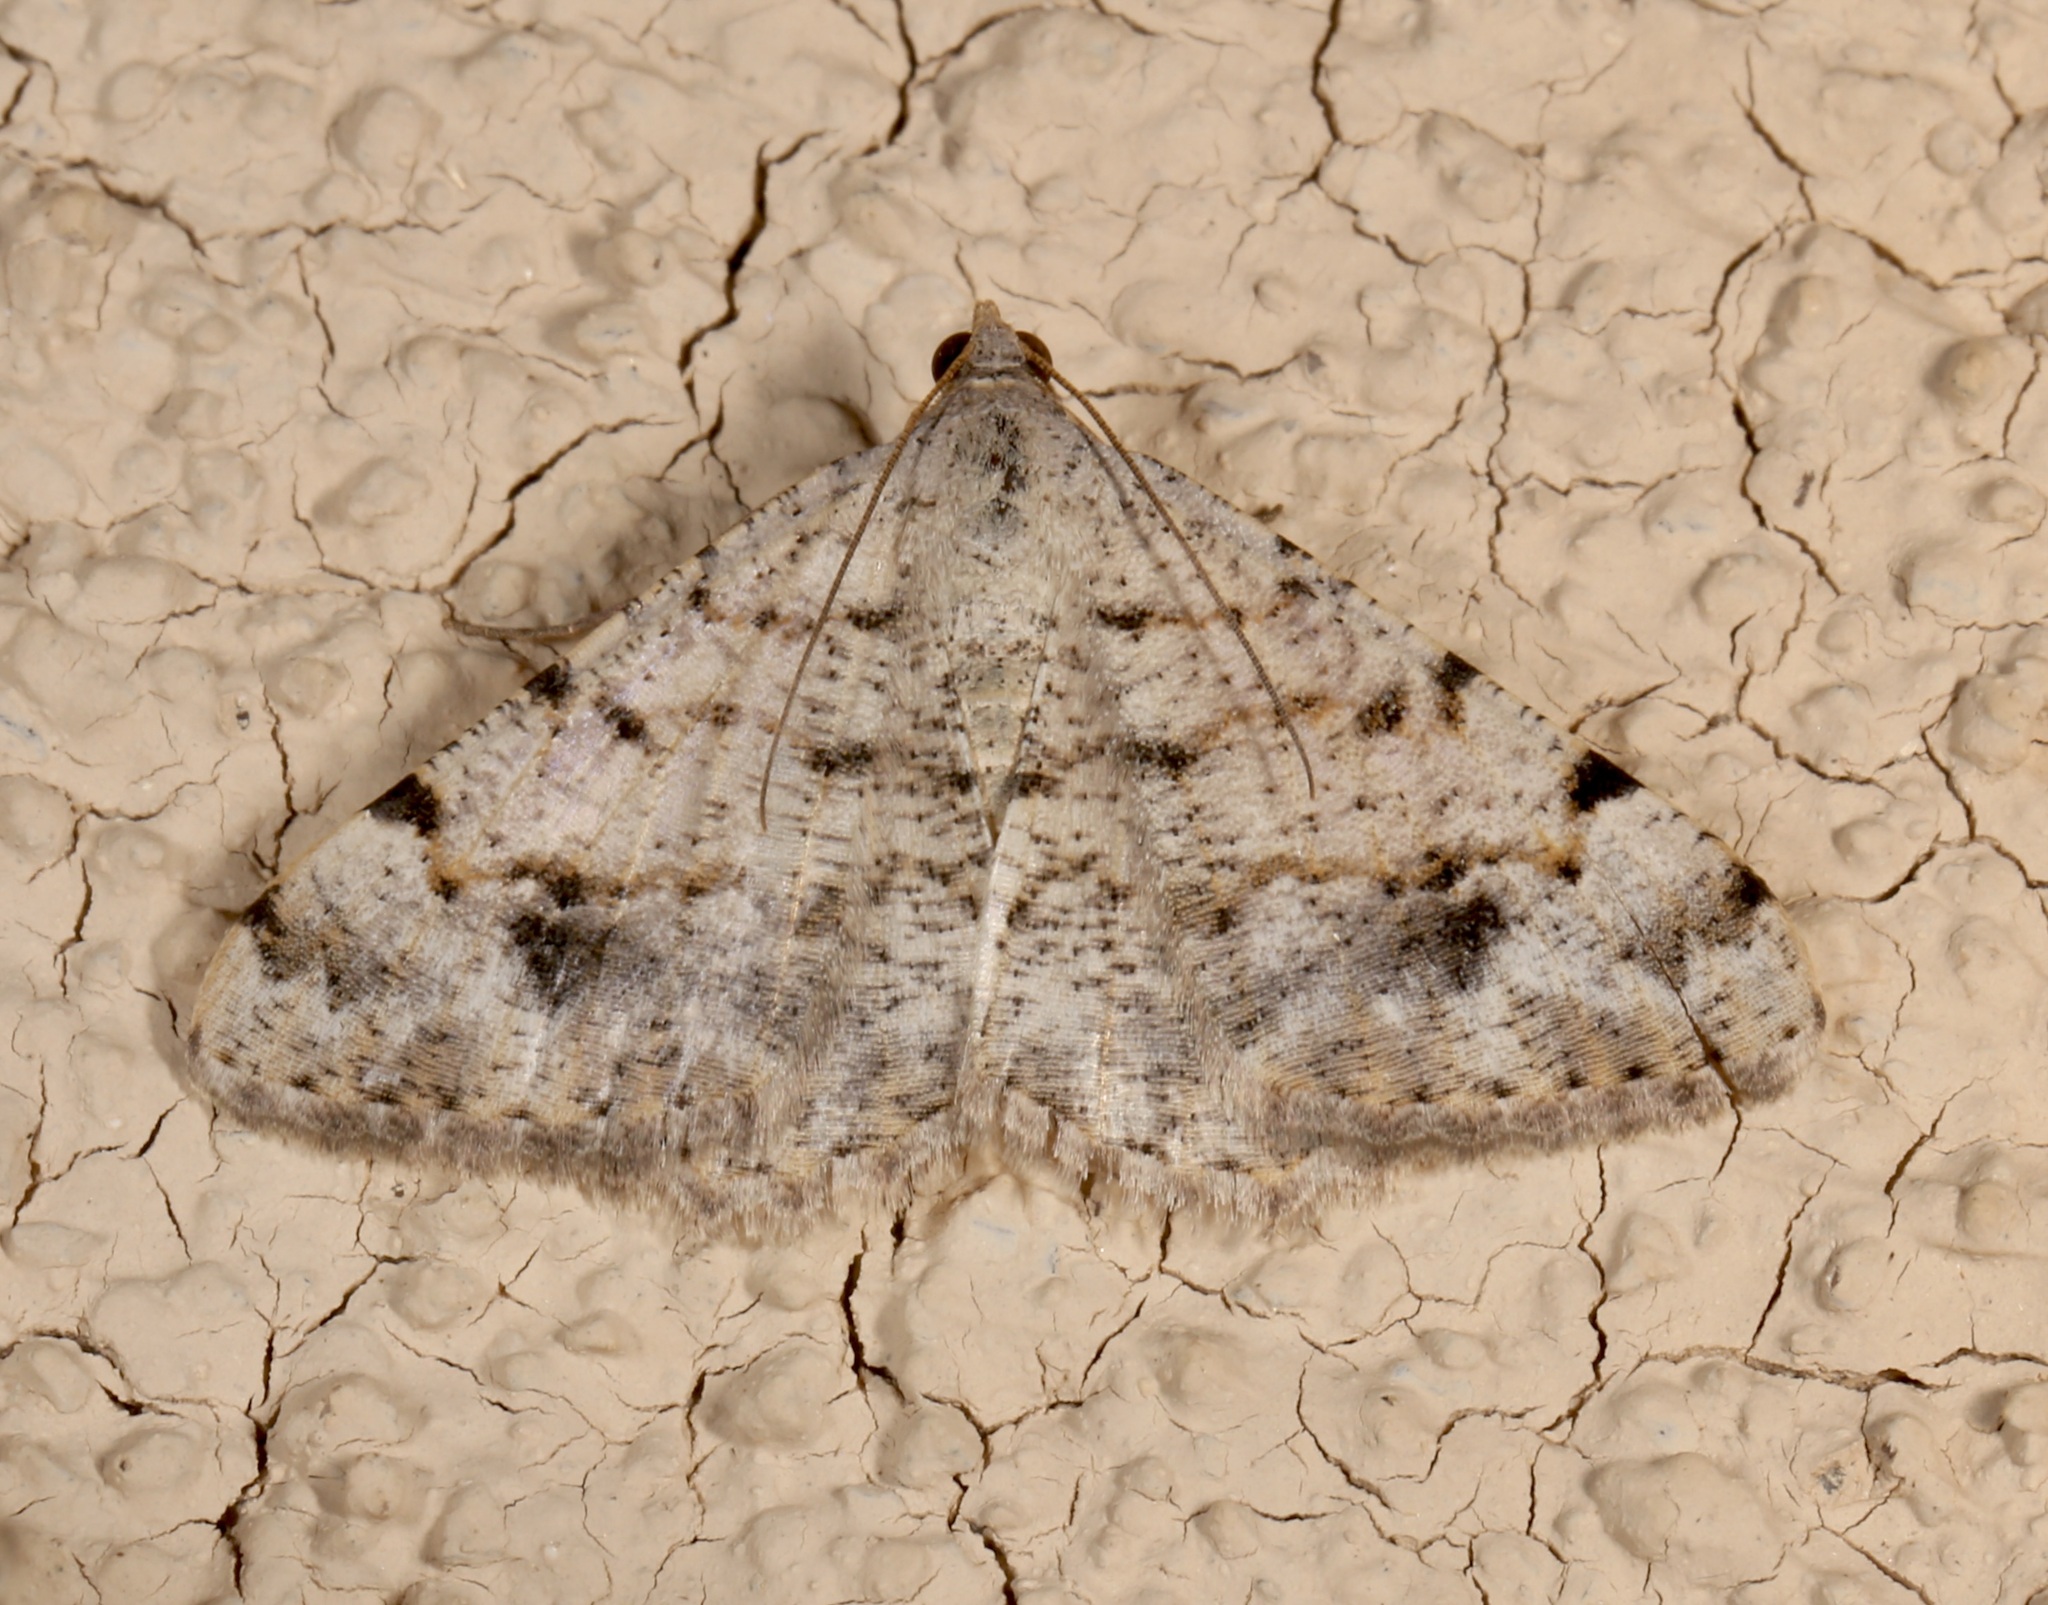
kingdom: Animalia
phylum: Arthropoda
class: Insecta
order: Lepidoptera
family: Geometridae
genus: Digrammia
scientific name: Digrammia colorata
